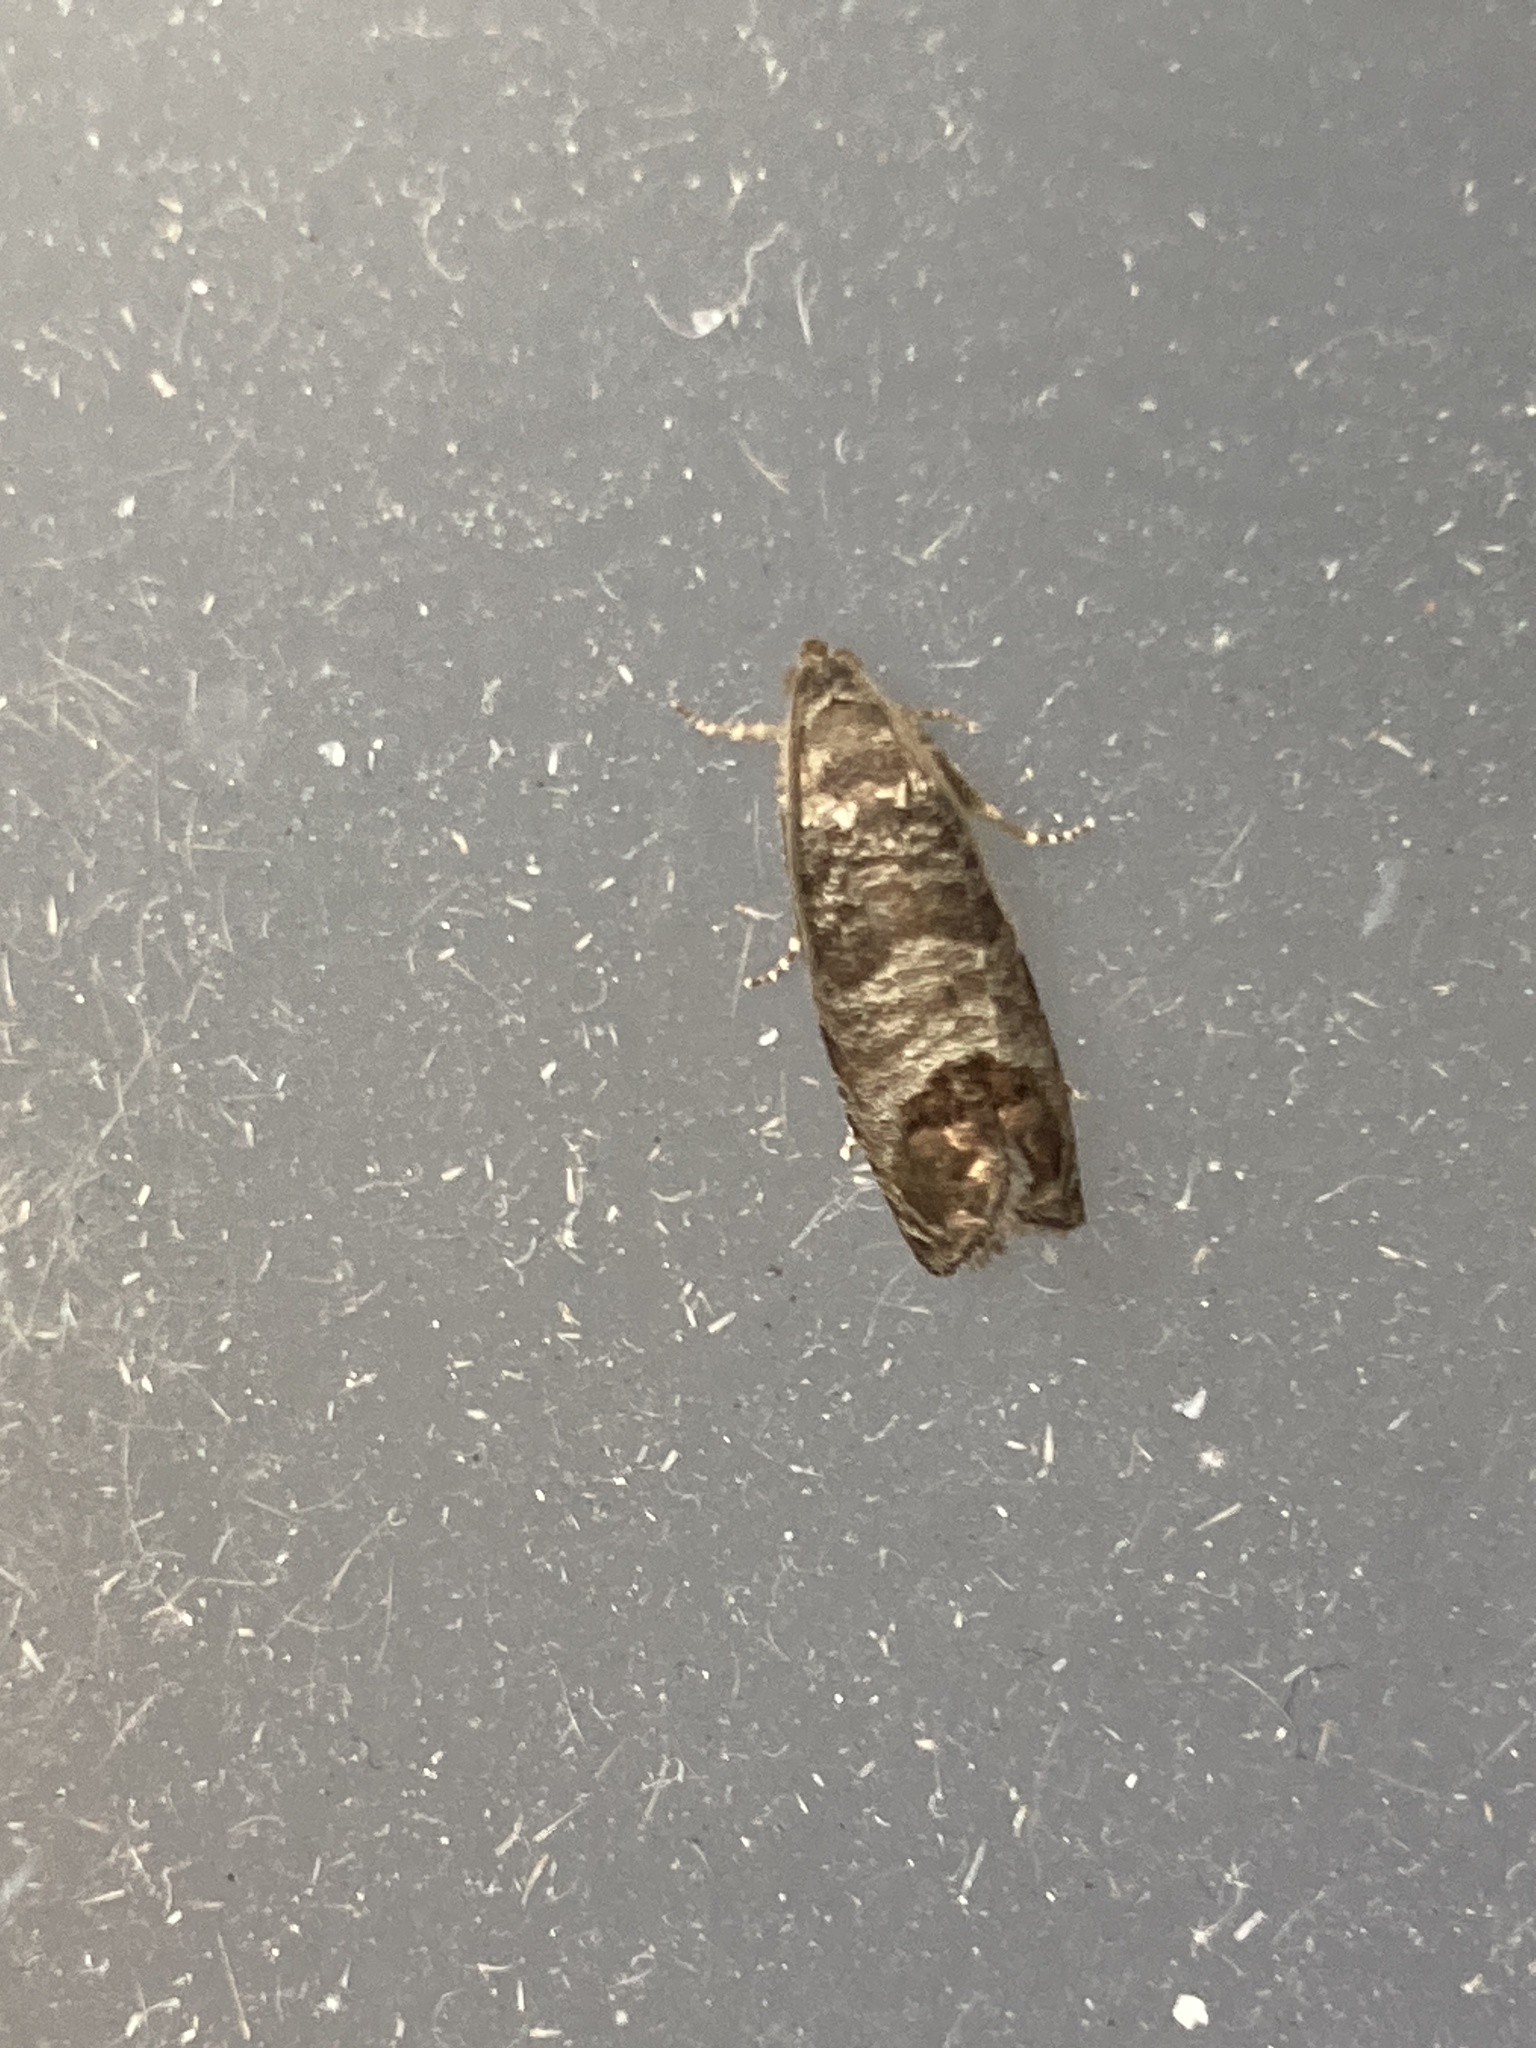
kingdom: Animalia
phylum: Arthropoda
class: Insecta
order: Lepidoptera
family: Tortricidae
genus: Cydia
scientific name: Cydia pomonella
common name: Codling moth
